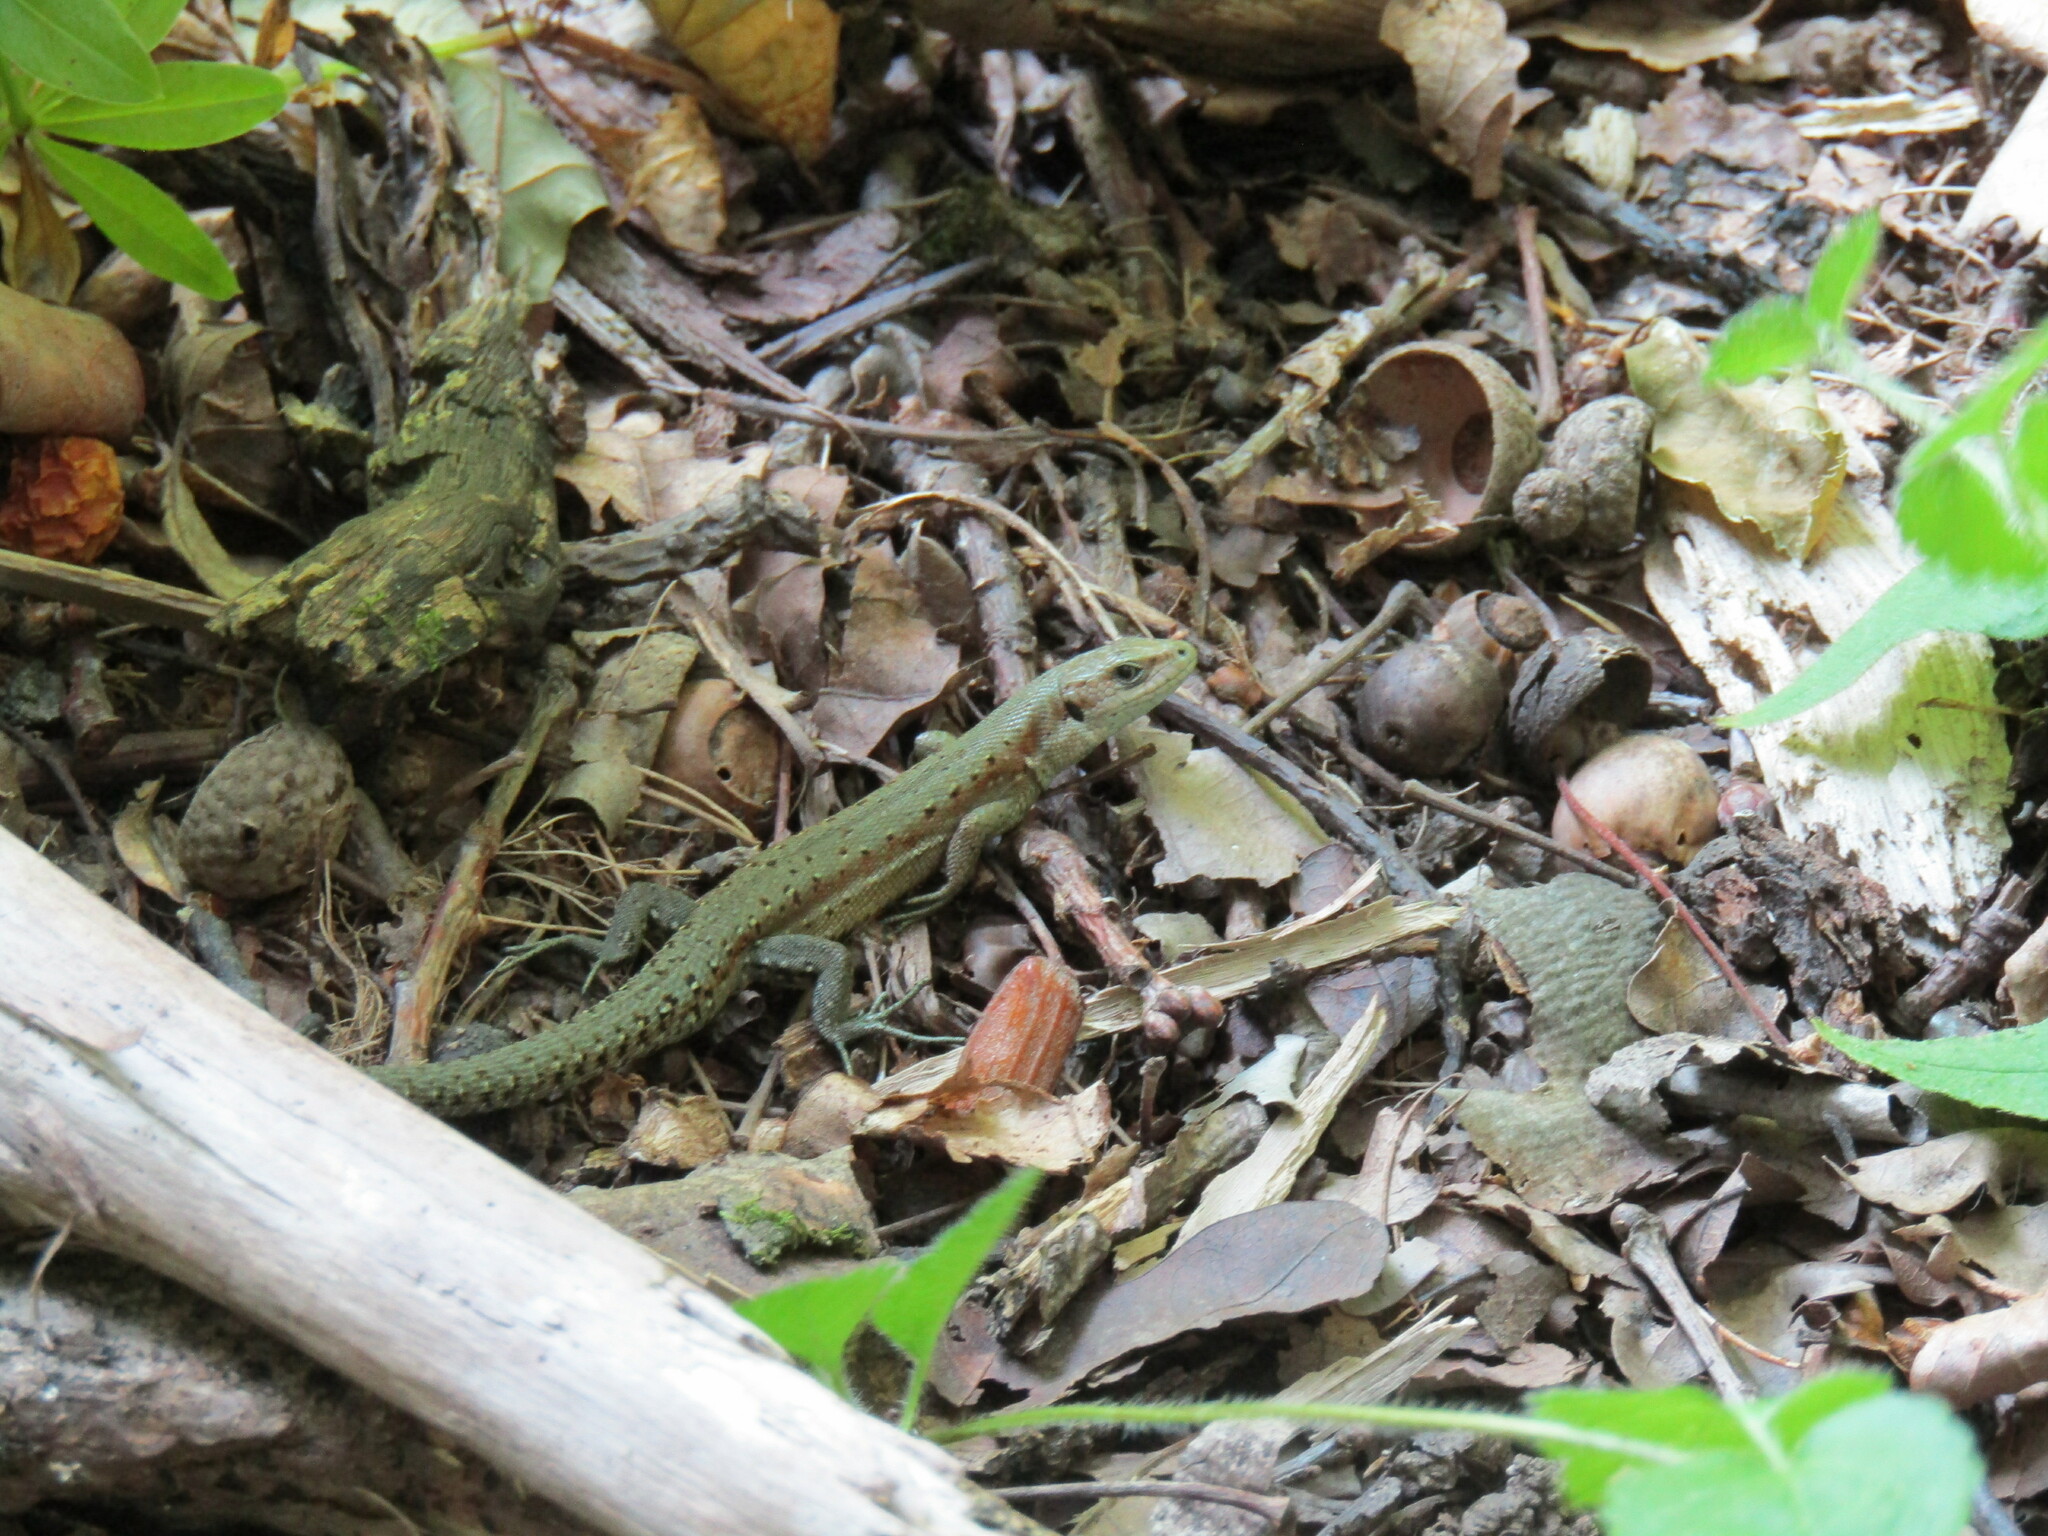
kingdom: Animalia
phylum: Chordata
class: Squamata
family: Lacertidae
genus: Zootoca
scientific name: Zootoca vivipara
